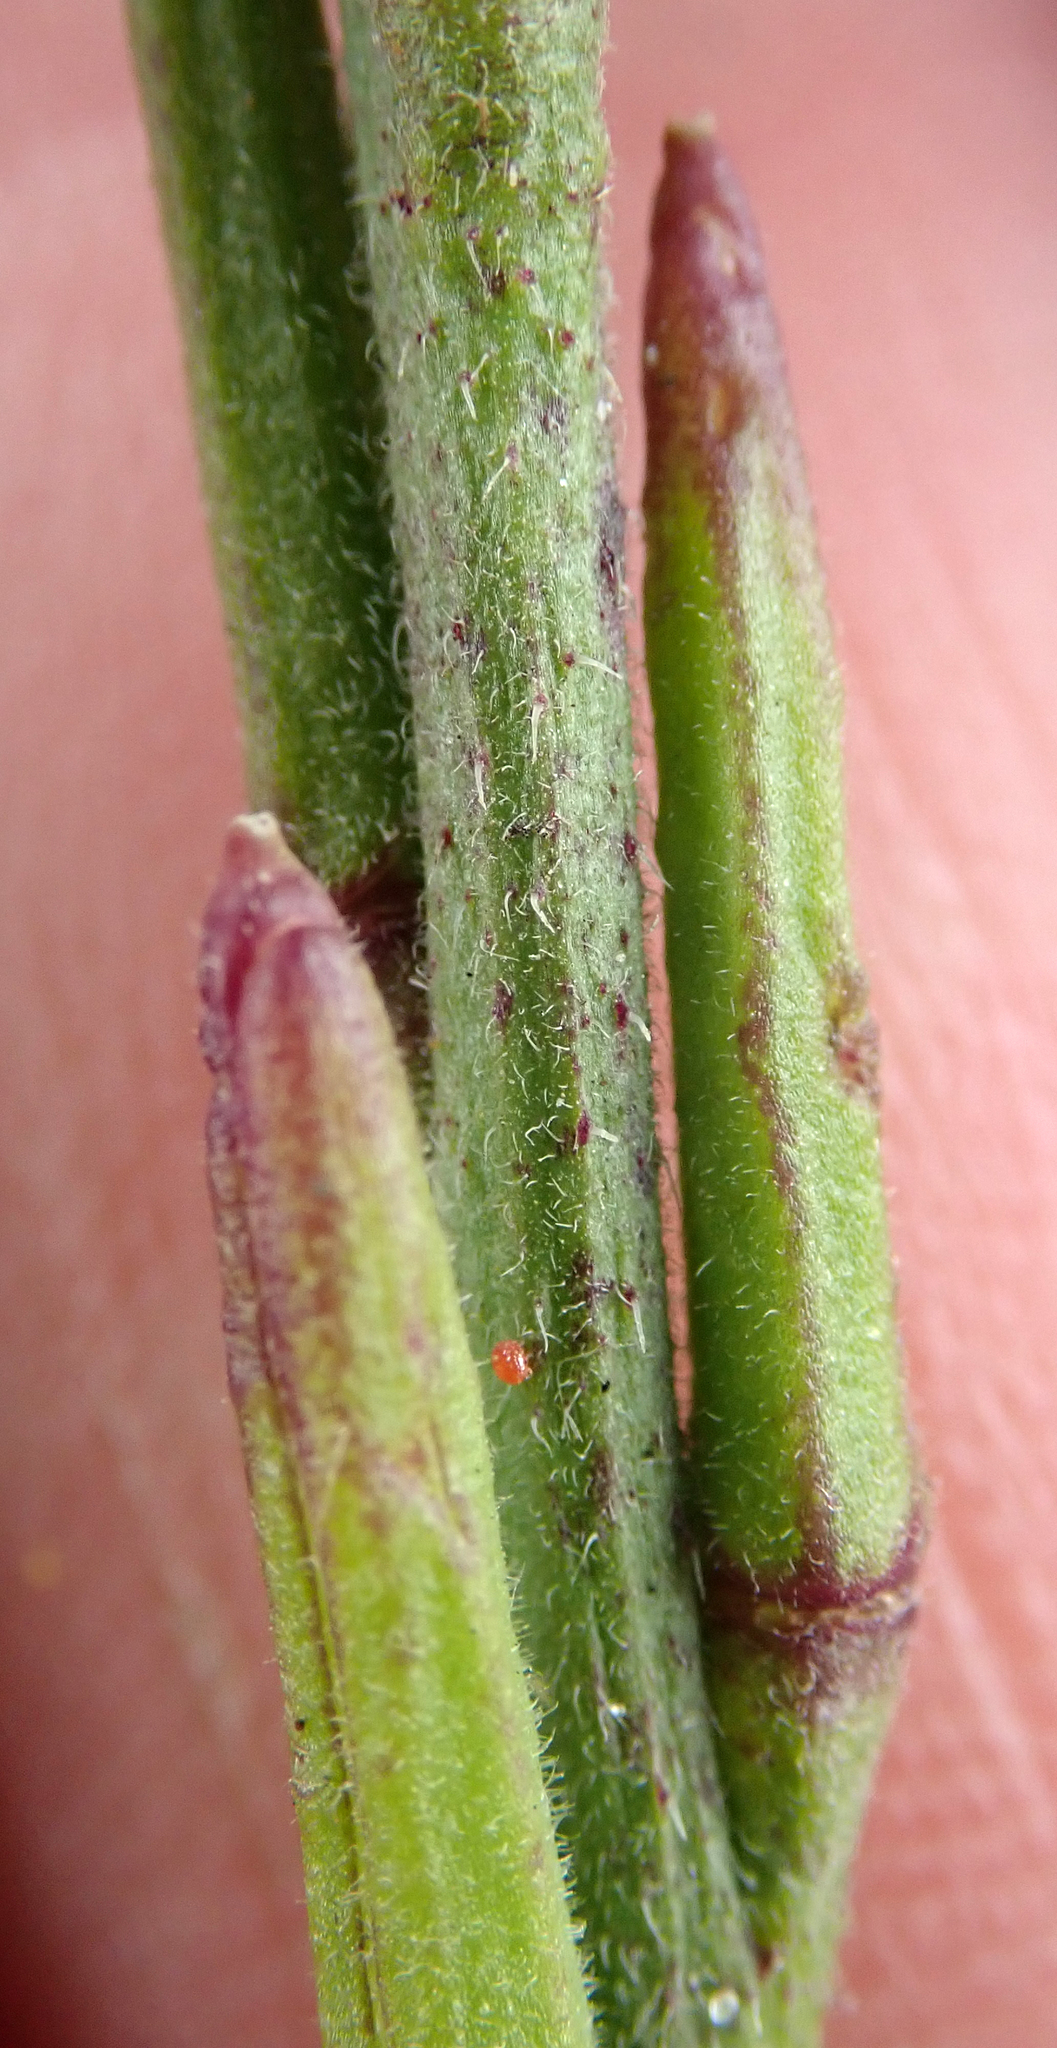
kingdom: Plantae
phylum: Tracheophyta
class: Magnoliopsida
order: Brassicales
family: Brassicaceae
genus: Sisymbrium
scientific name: Sisymbrium officinale
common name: Hedge mustard
